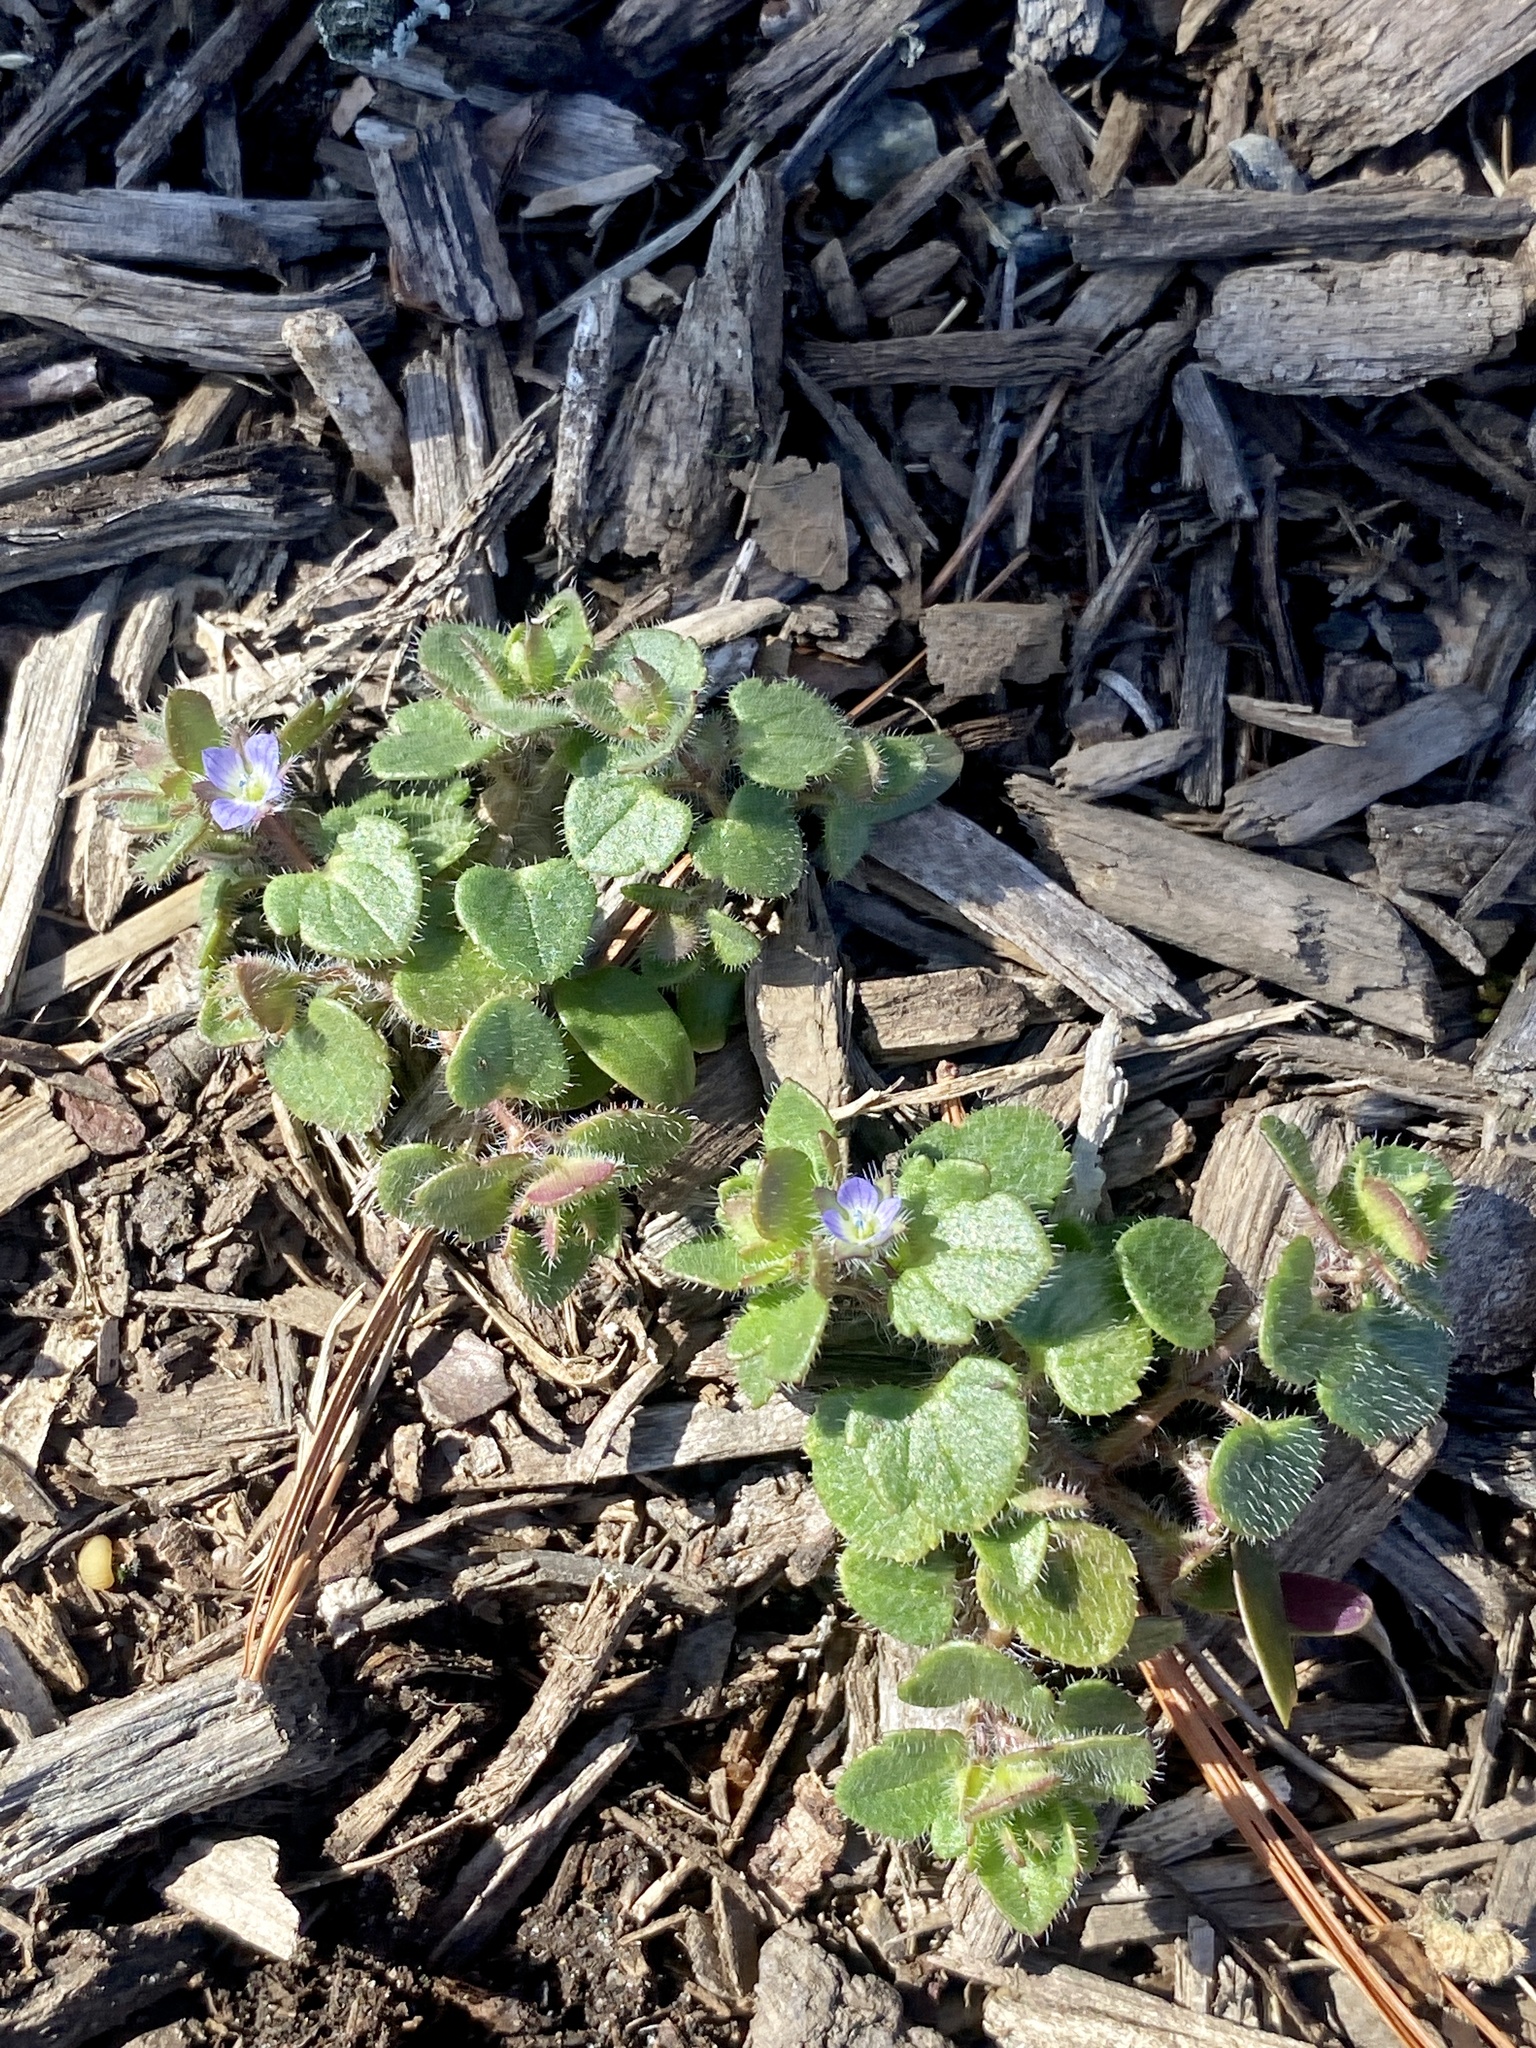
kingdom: Plantae
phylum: Tracheophyta
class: Magnoliopsida
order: Lamiales
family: Plantaginaceae
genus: Veronica
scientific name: Veronica hederifolia
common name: Ivy-leaved speedwell
